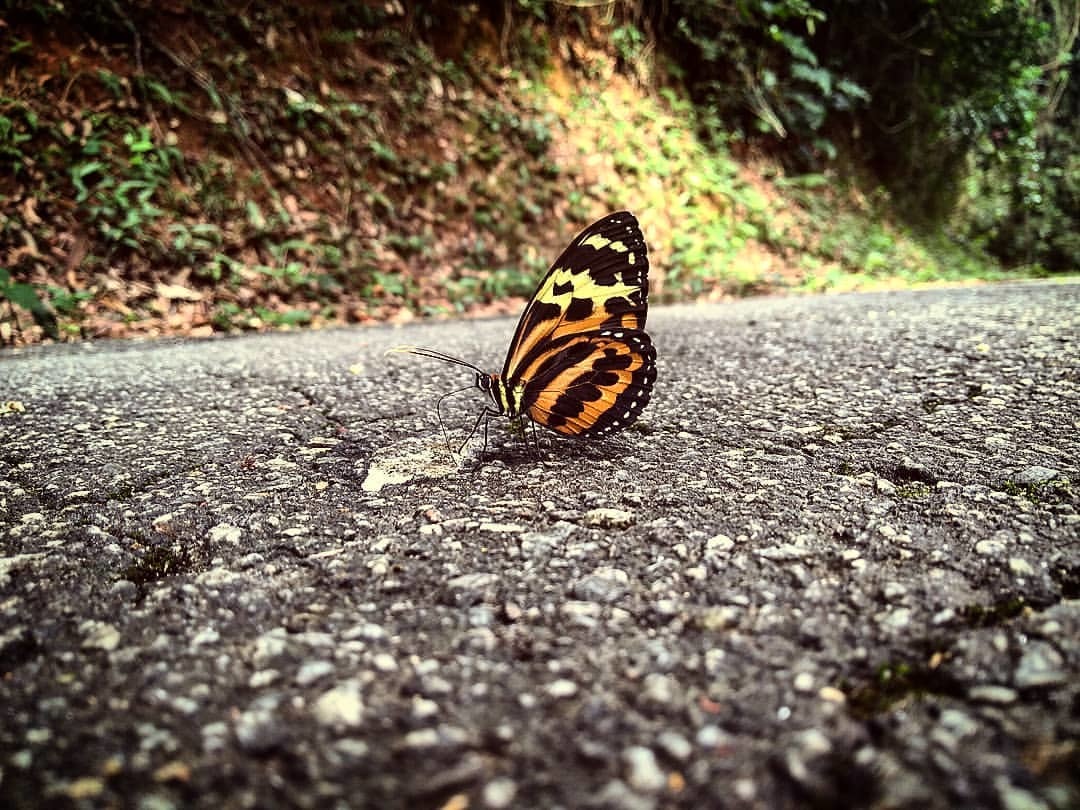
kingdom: Animalia
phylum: Arthropoda
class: Insecta
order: Lepidoptera
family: Nymphalidae
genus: Tithorea
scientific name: Tithorea harmonia
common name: Harmonia tigerwing
